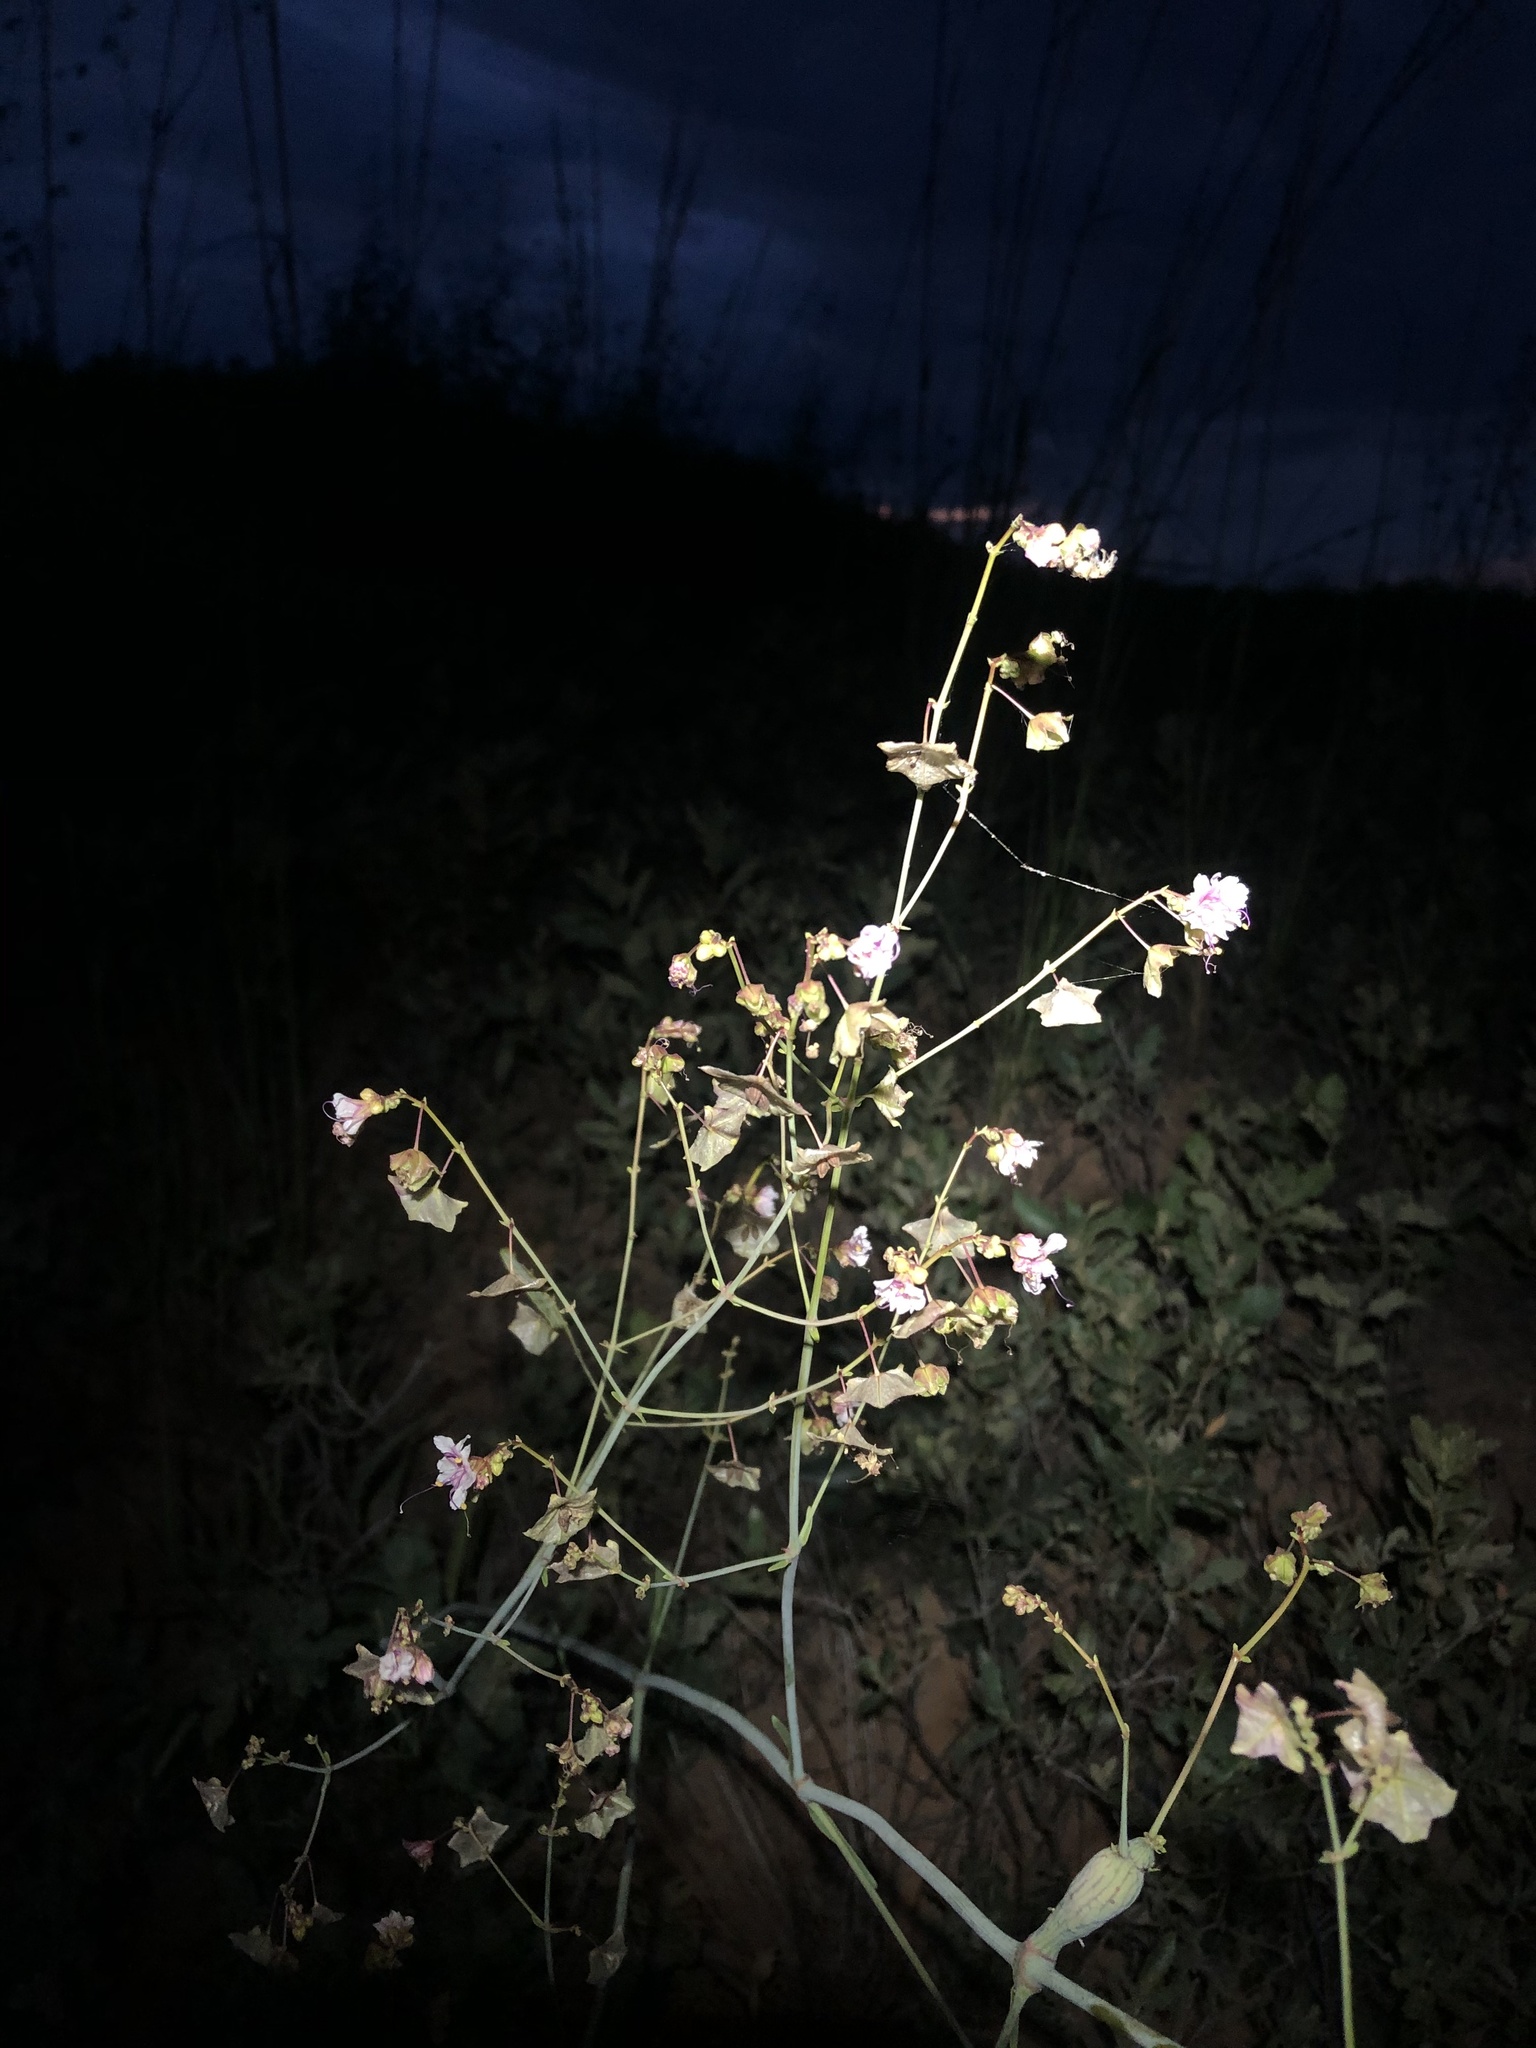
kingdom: Plantae
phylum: Tracheophyta
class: Magnoliopsida
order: Caryophyllales
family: Nyctaginaceae
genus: Mirabilis
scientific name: Mirabilis glabra
